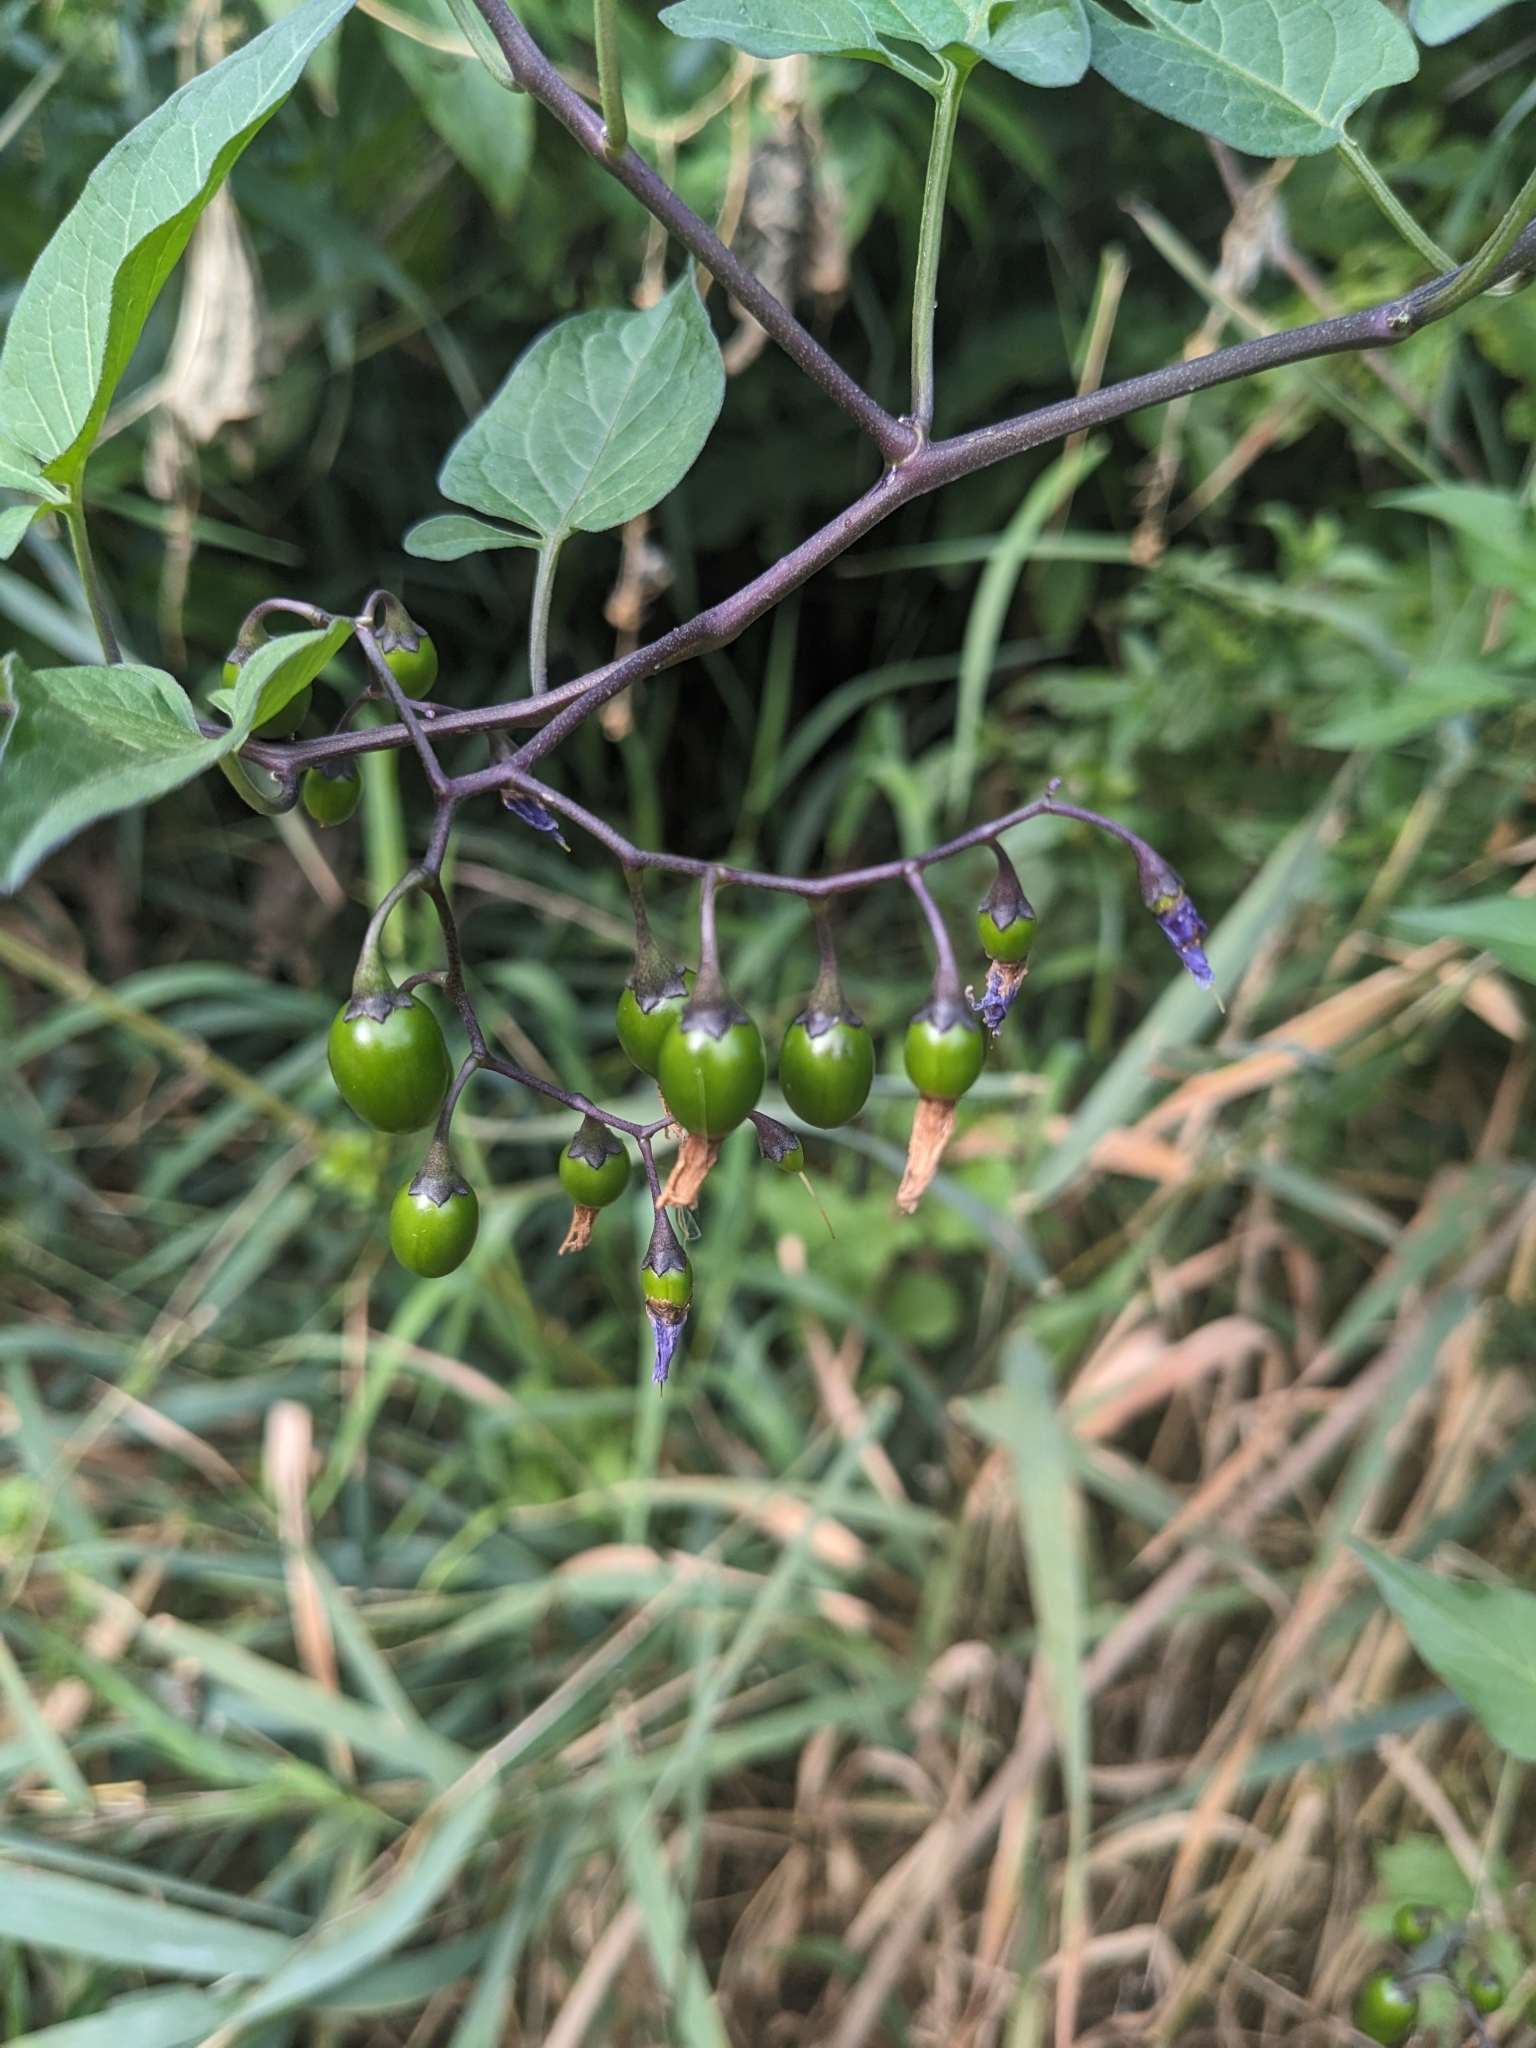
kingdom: Plantae
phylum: Tracheophyta
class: Magnoliopsida
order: Solanales
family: Solanaceae
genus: Solanum
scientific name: Solanum dulcamara
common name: Climbing nightshade
